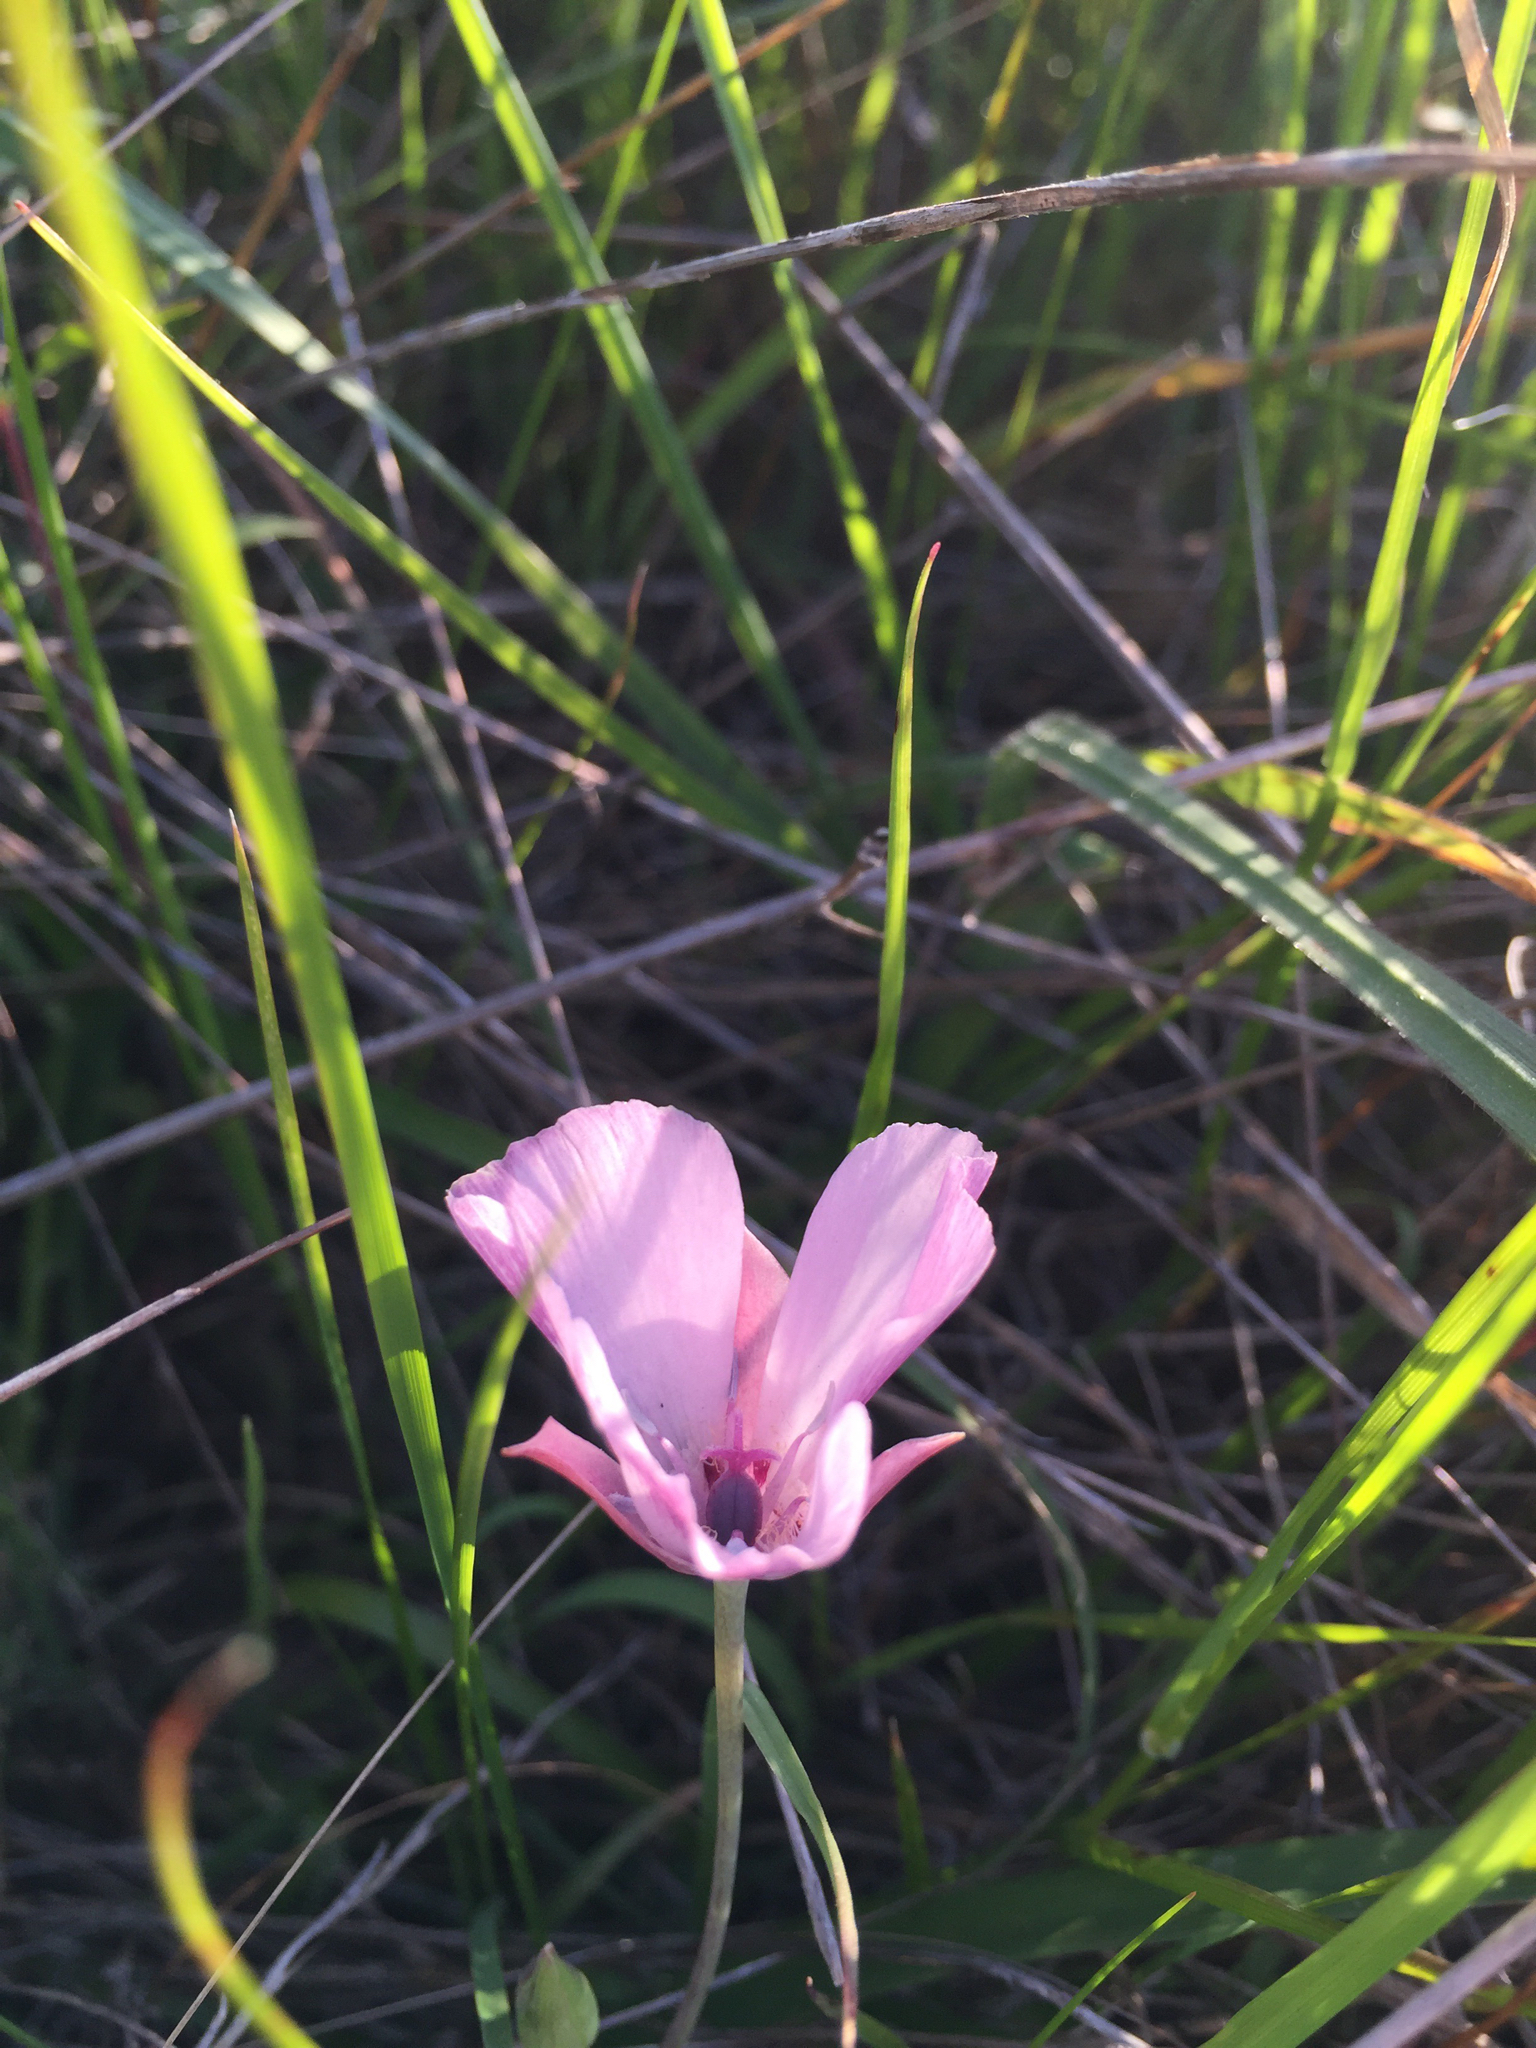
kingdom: Plantae
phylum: Tracheophyta
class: Liliopsida
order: Liliales
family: Liliaceae
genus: Calochortus
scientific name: Calochortus umbellatus
